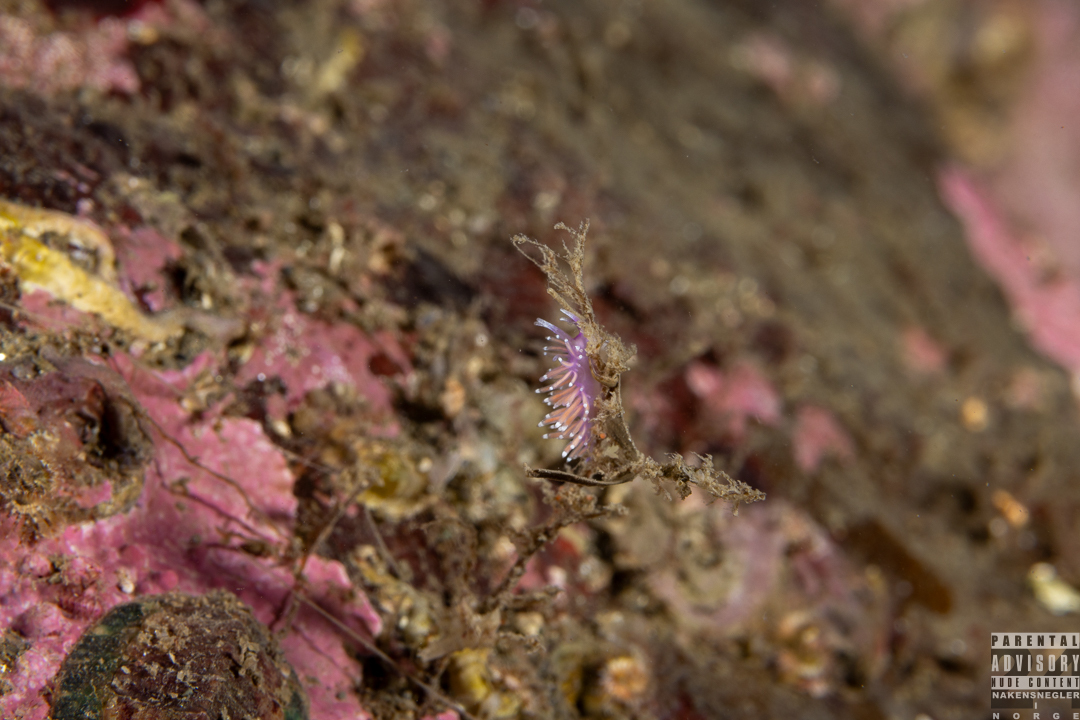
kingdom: Animalia
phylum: Mollusca
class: Gastropoda
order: Nudibranchia
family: Flabellinidae
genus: Edmundsella
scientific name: Edmundsella pedata
